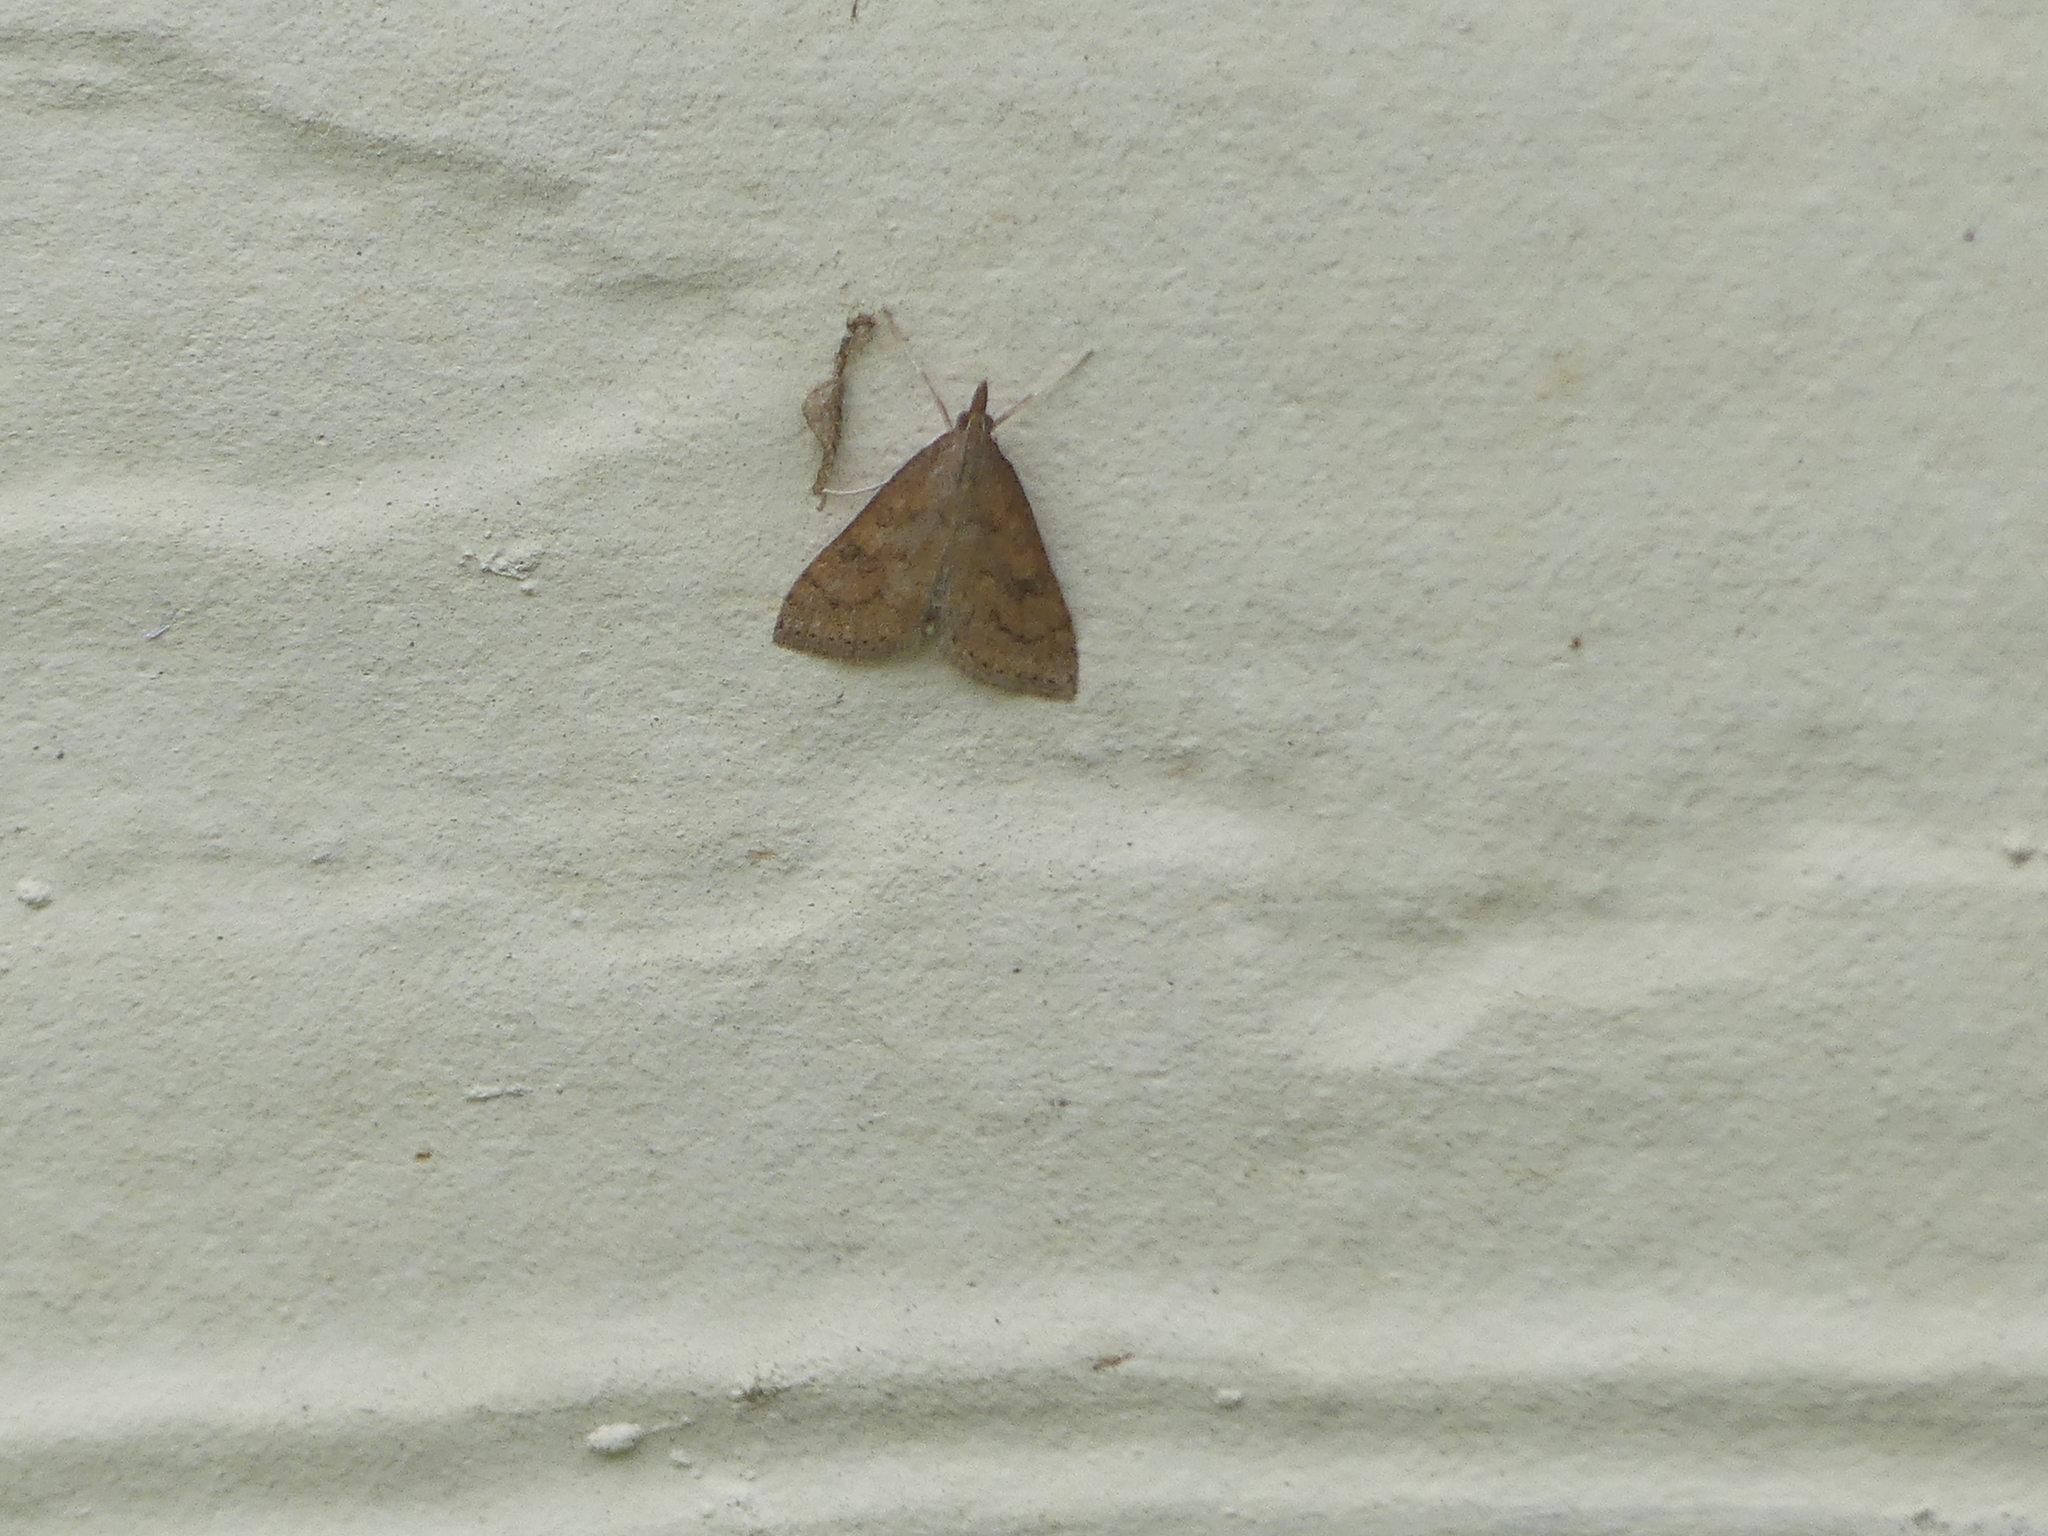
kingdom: Animalia
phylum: Arthropoda
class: Insecta
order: Lepidoptera
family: Crambidae
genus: Udea
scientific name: Udea rubigalis
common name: Celery leaftier moth
